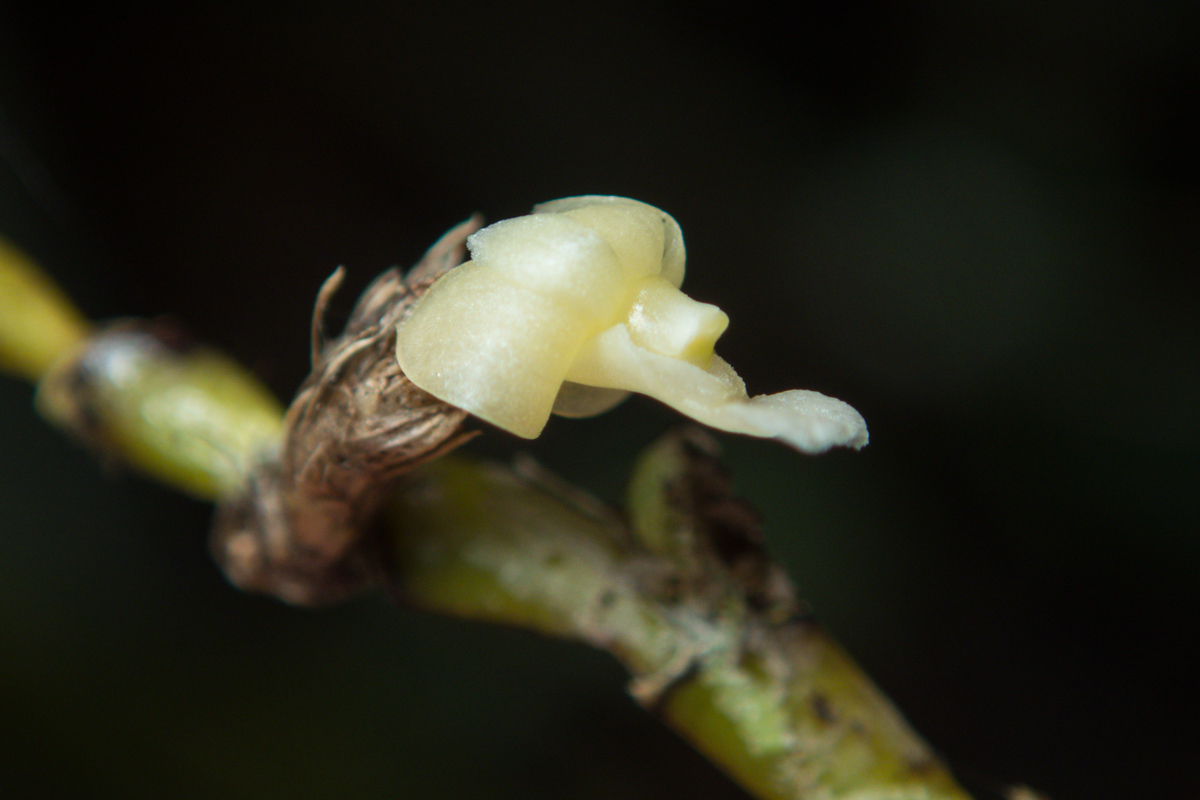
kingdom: Plantae
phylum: Tracheophyta
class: Liliopsida
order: Asparagales
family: Orchidaceae
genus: Dendrobium
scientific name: Dendrobium aloifolium
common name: Aloe-like dendrobium
